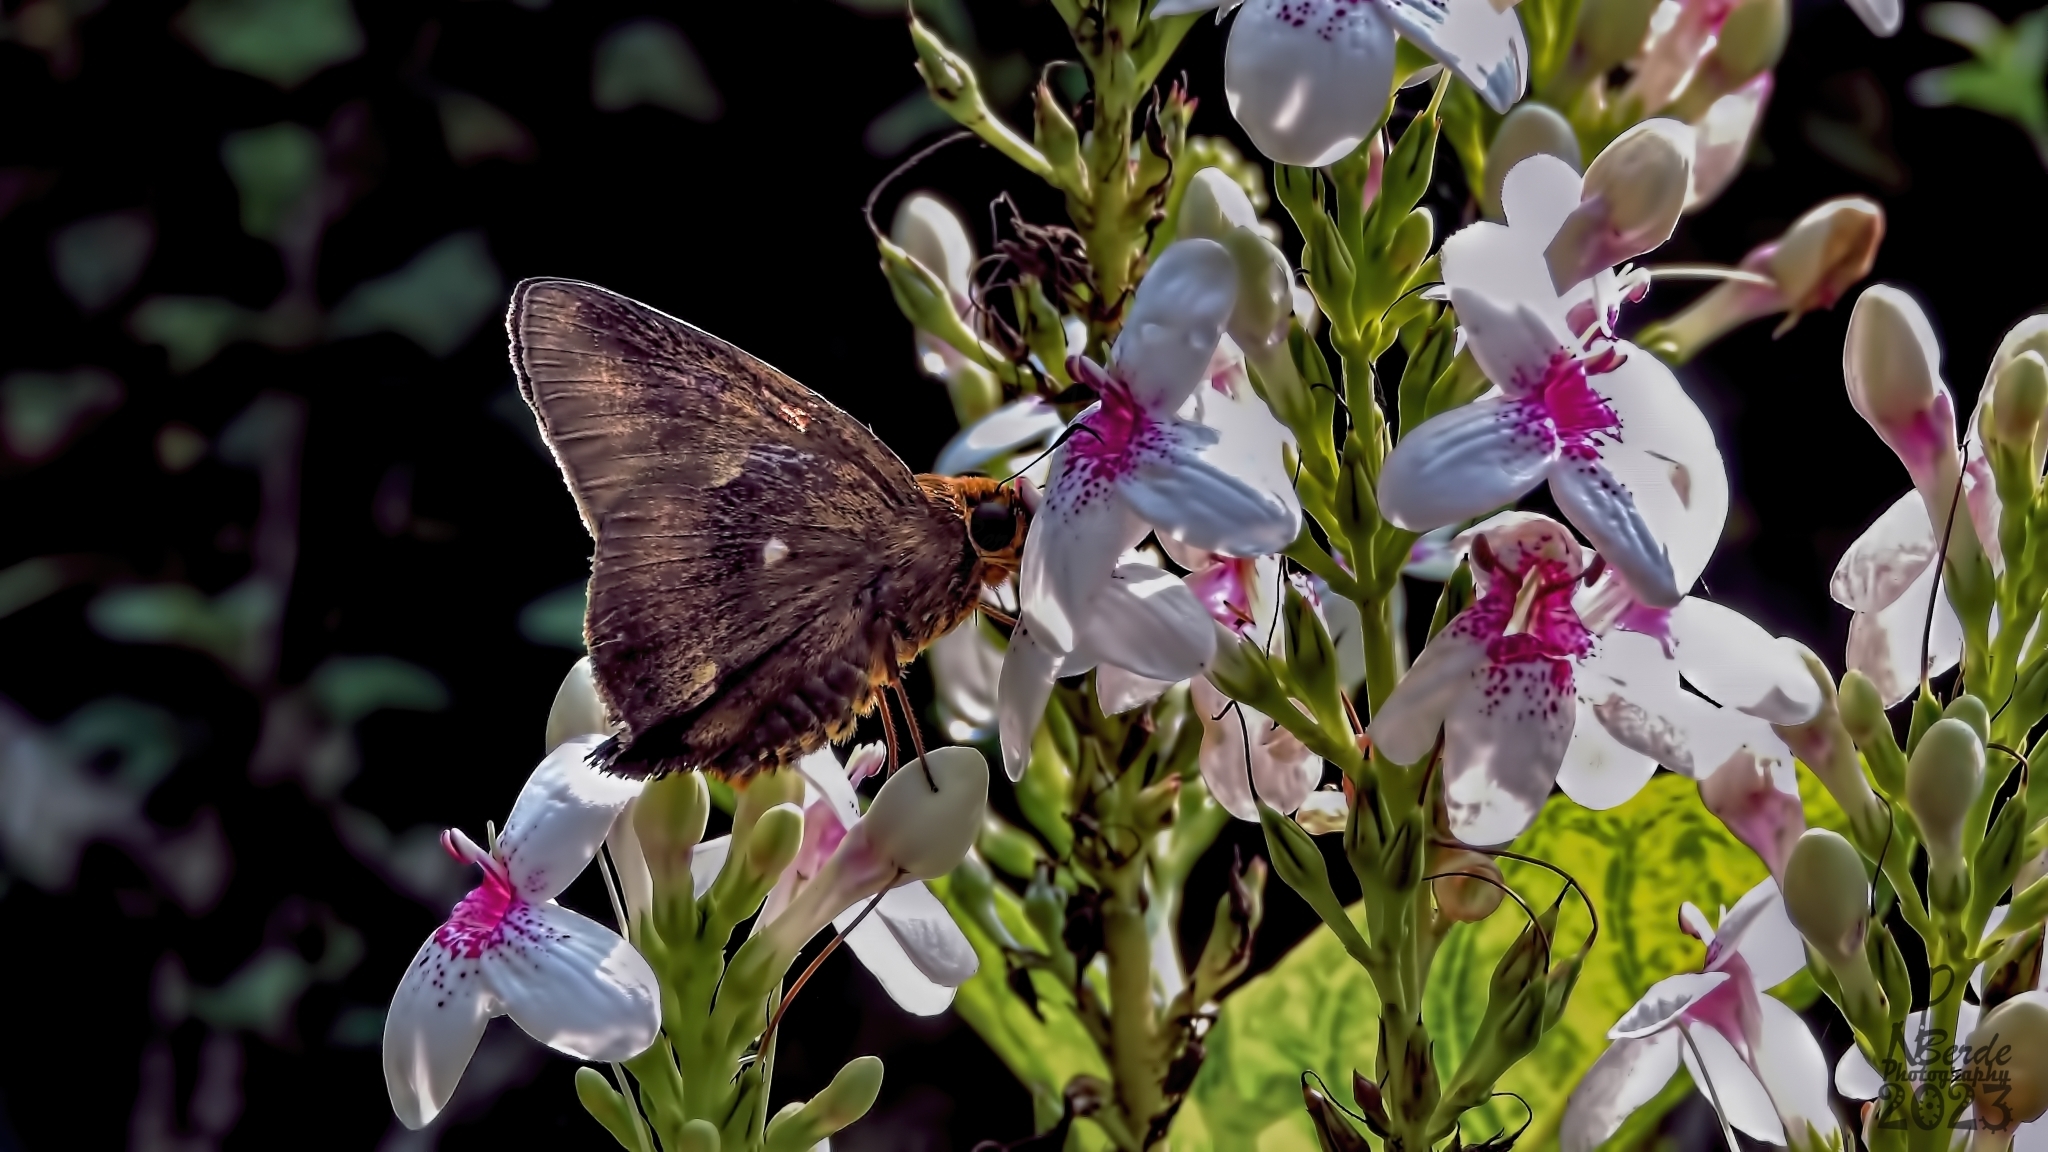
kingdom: Animalia
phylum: Arthropoda
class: Insecta
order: Lepidoptera
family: Hesperiidae
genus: Hasora
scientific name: Hasora badra
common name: Common awl
